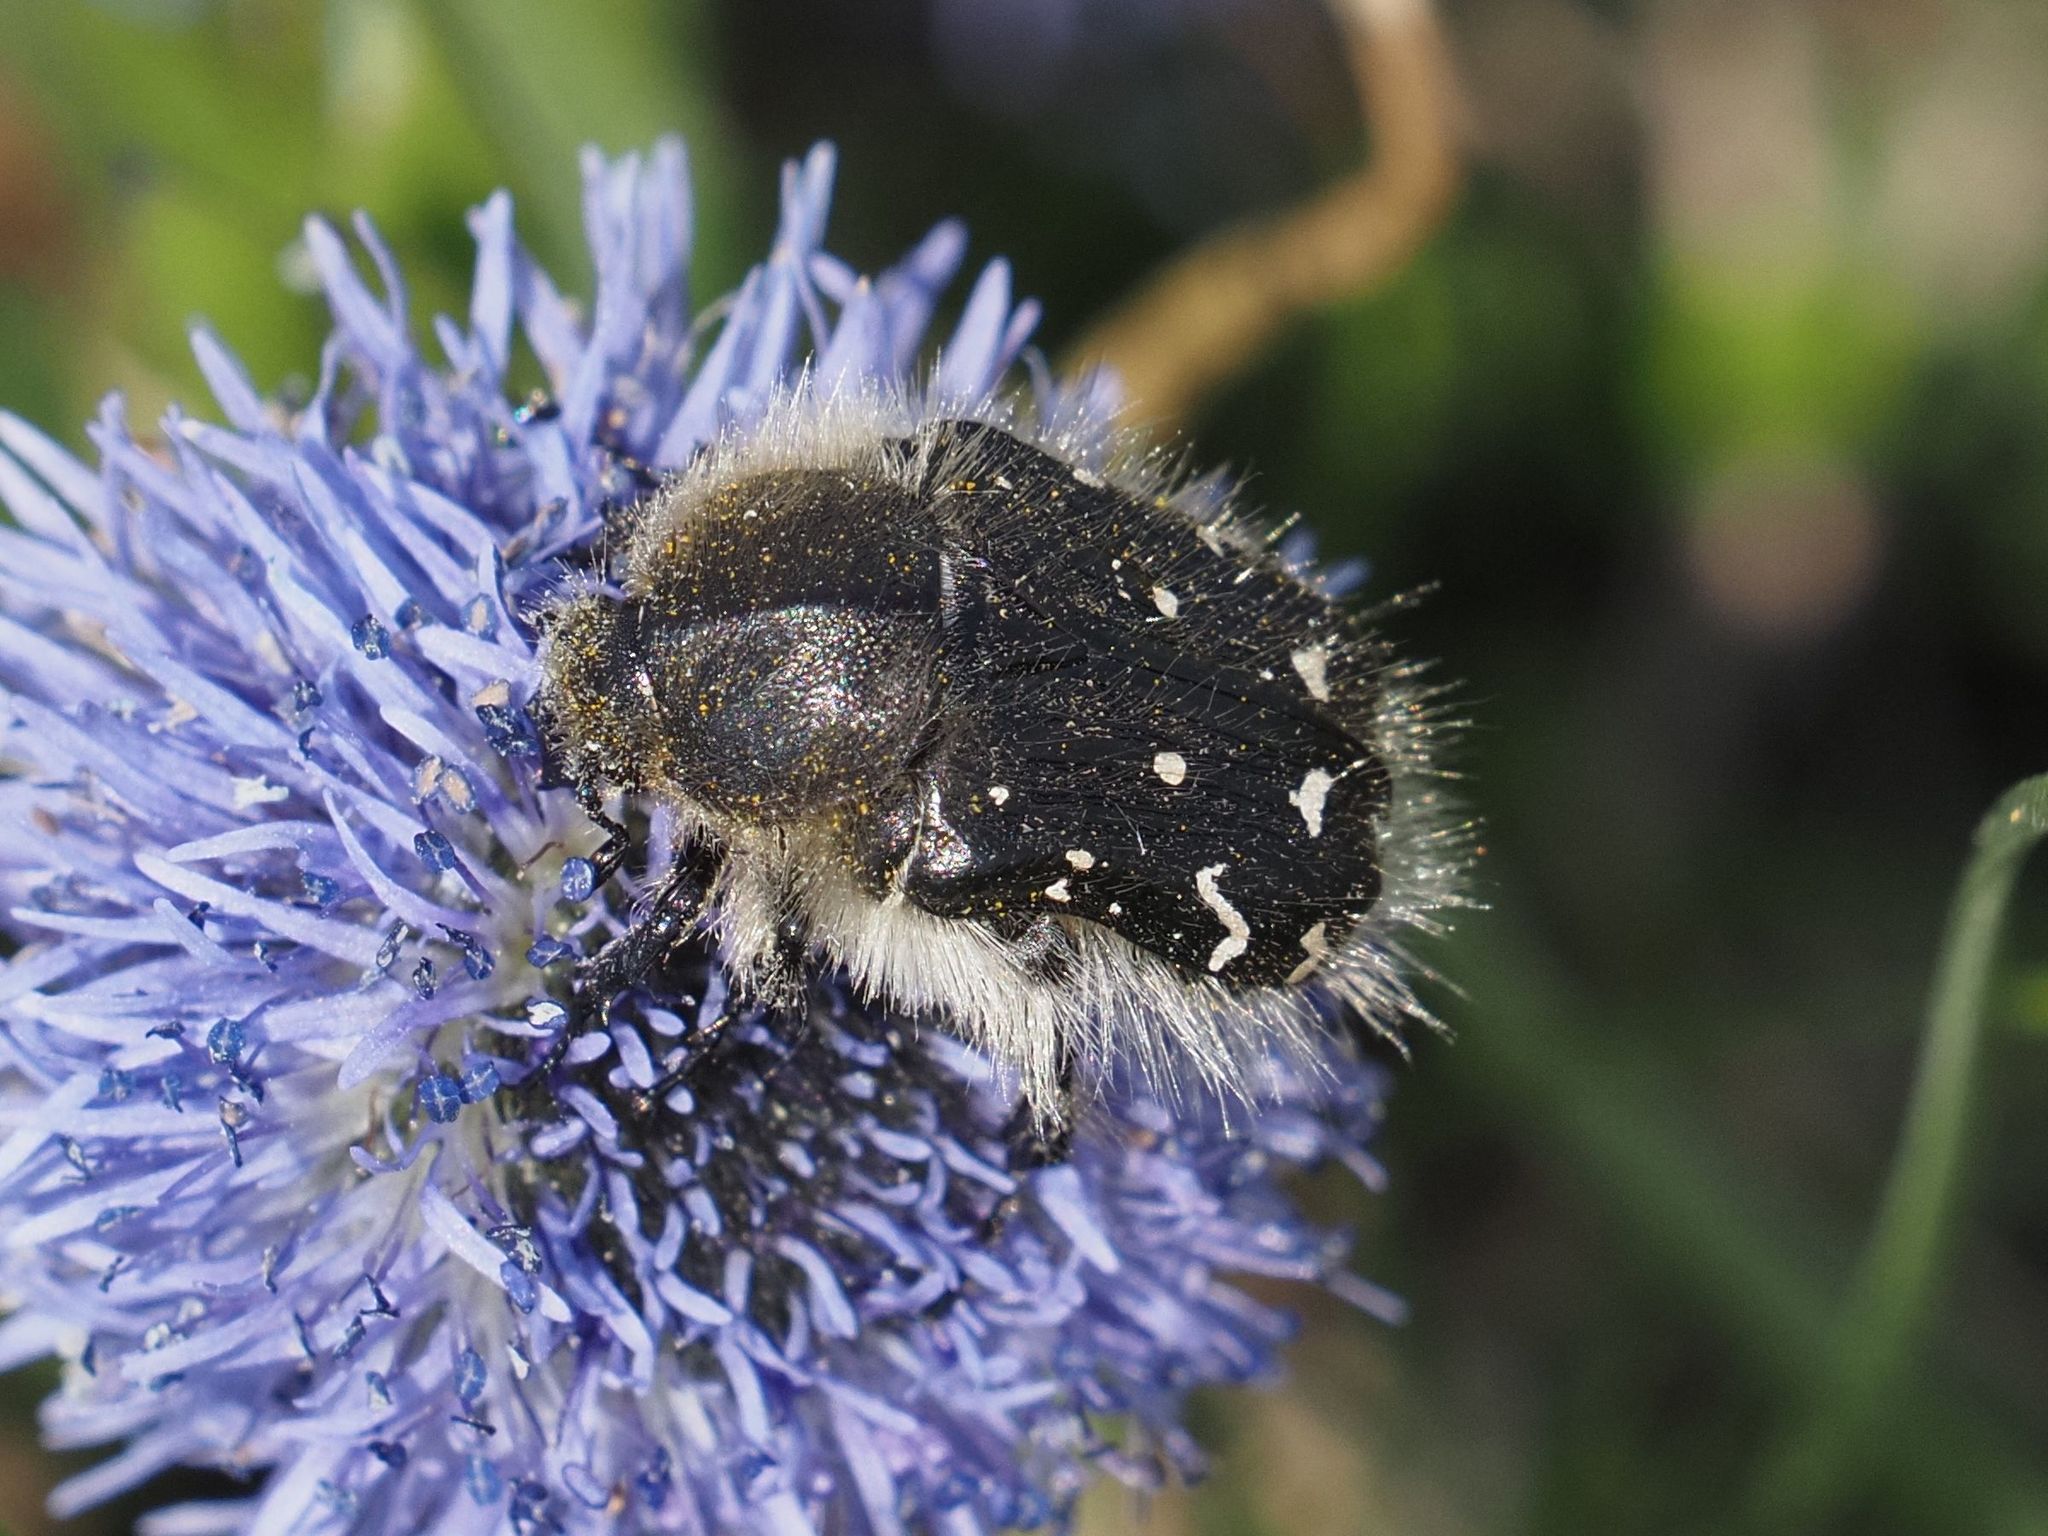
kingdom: Animalia
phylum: Arthropoda
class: Insecta
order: Coleoptera
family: Scarabaeidae
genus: Tropinota
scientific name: Tropinota hirta
